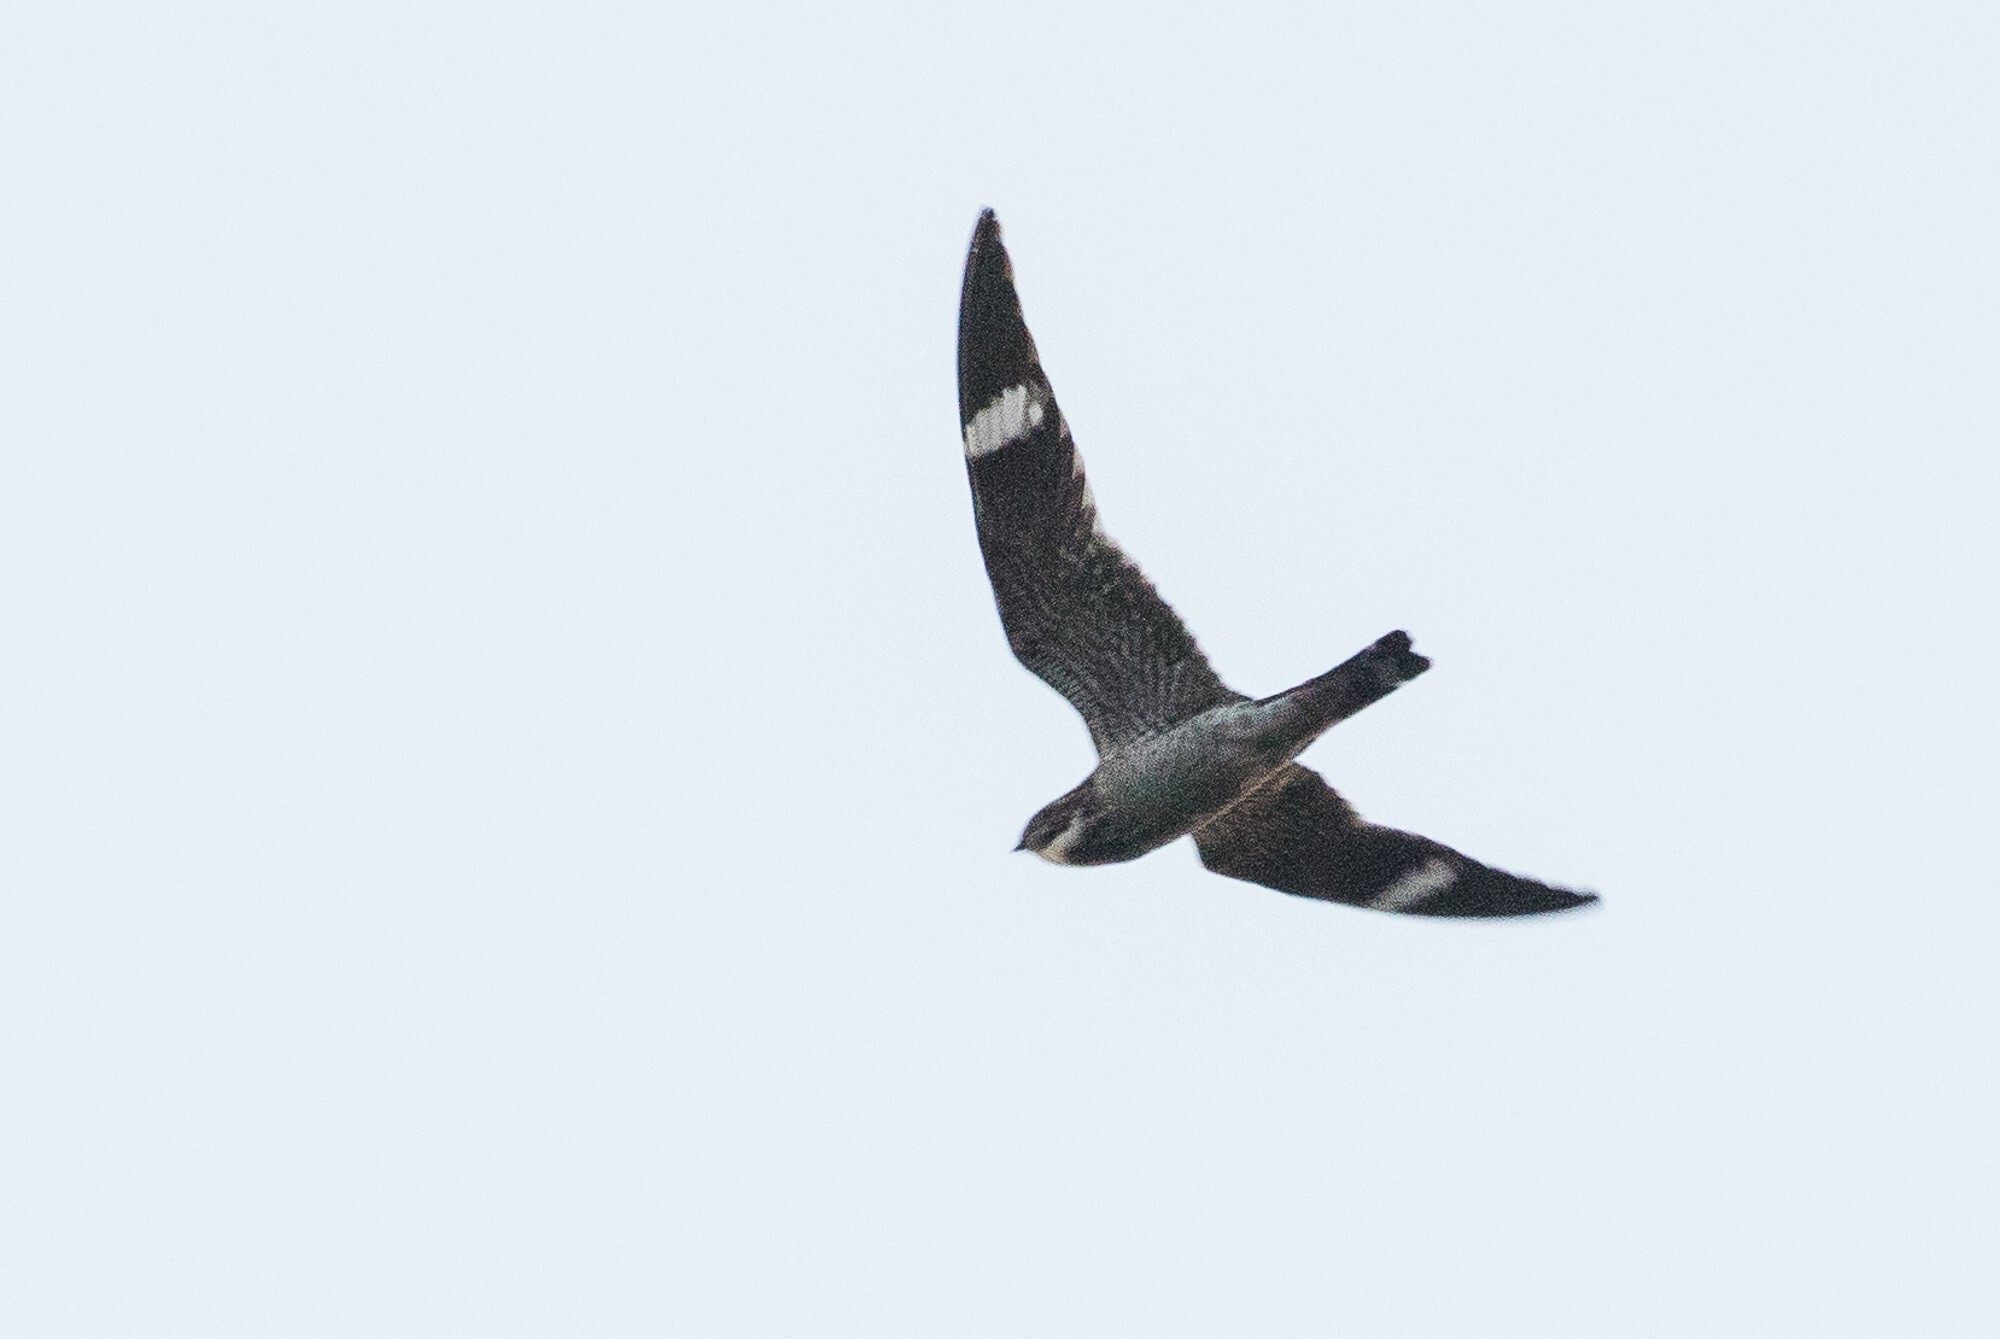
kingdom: Animalia
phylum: Chordata
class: Aves
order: Caprimulgiformes
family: Caprimulgidae
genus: Chordeiles
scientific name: Chordeiles minor
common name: Common nighthawk
